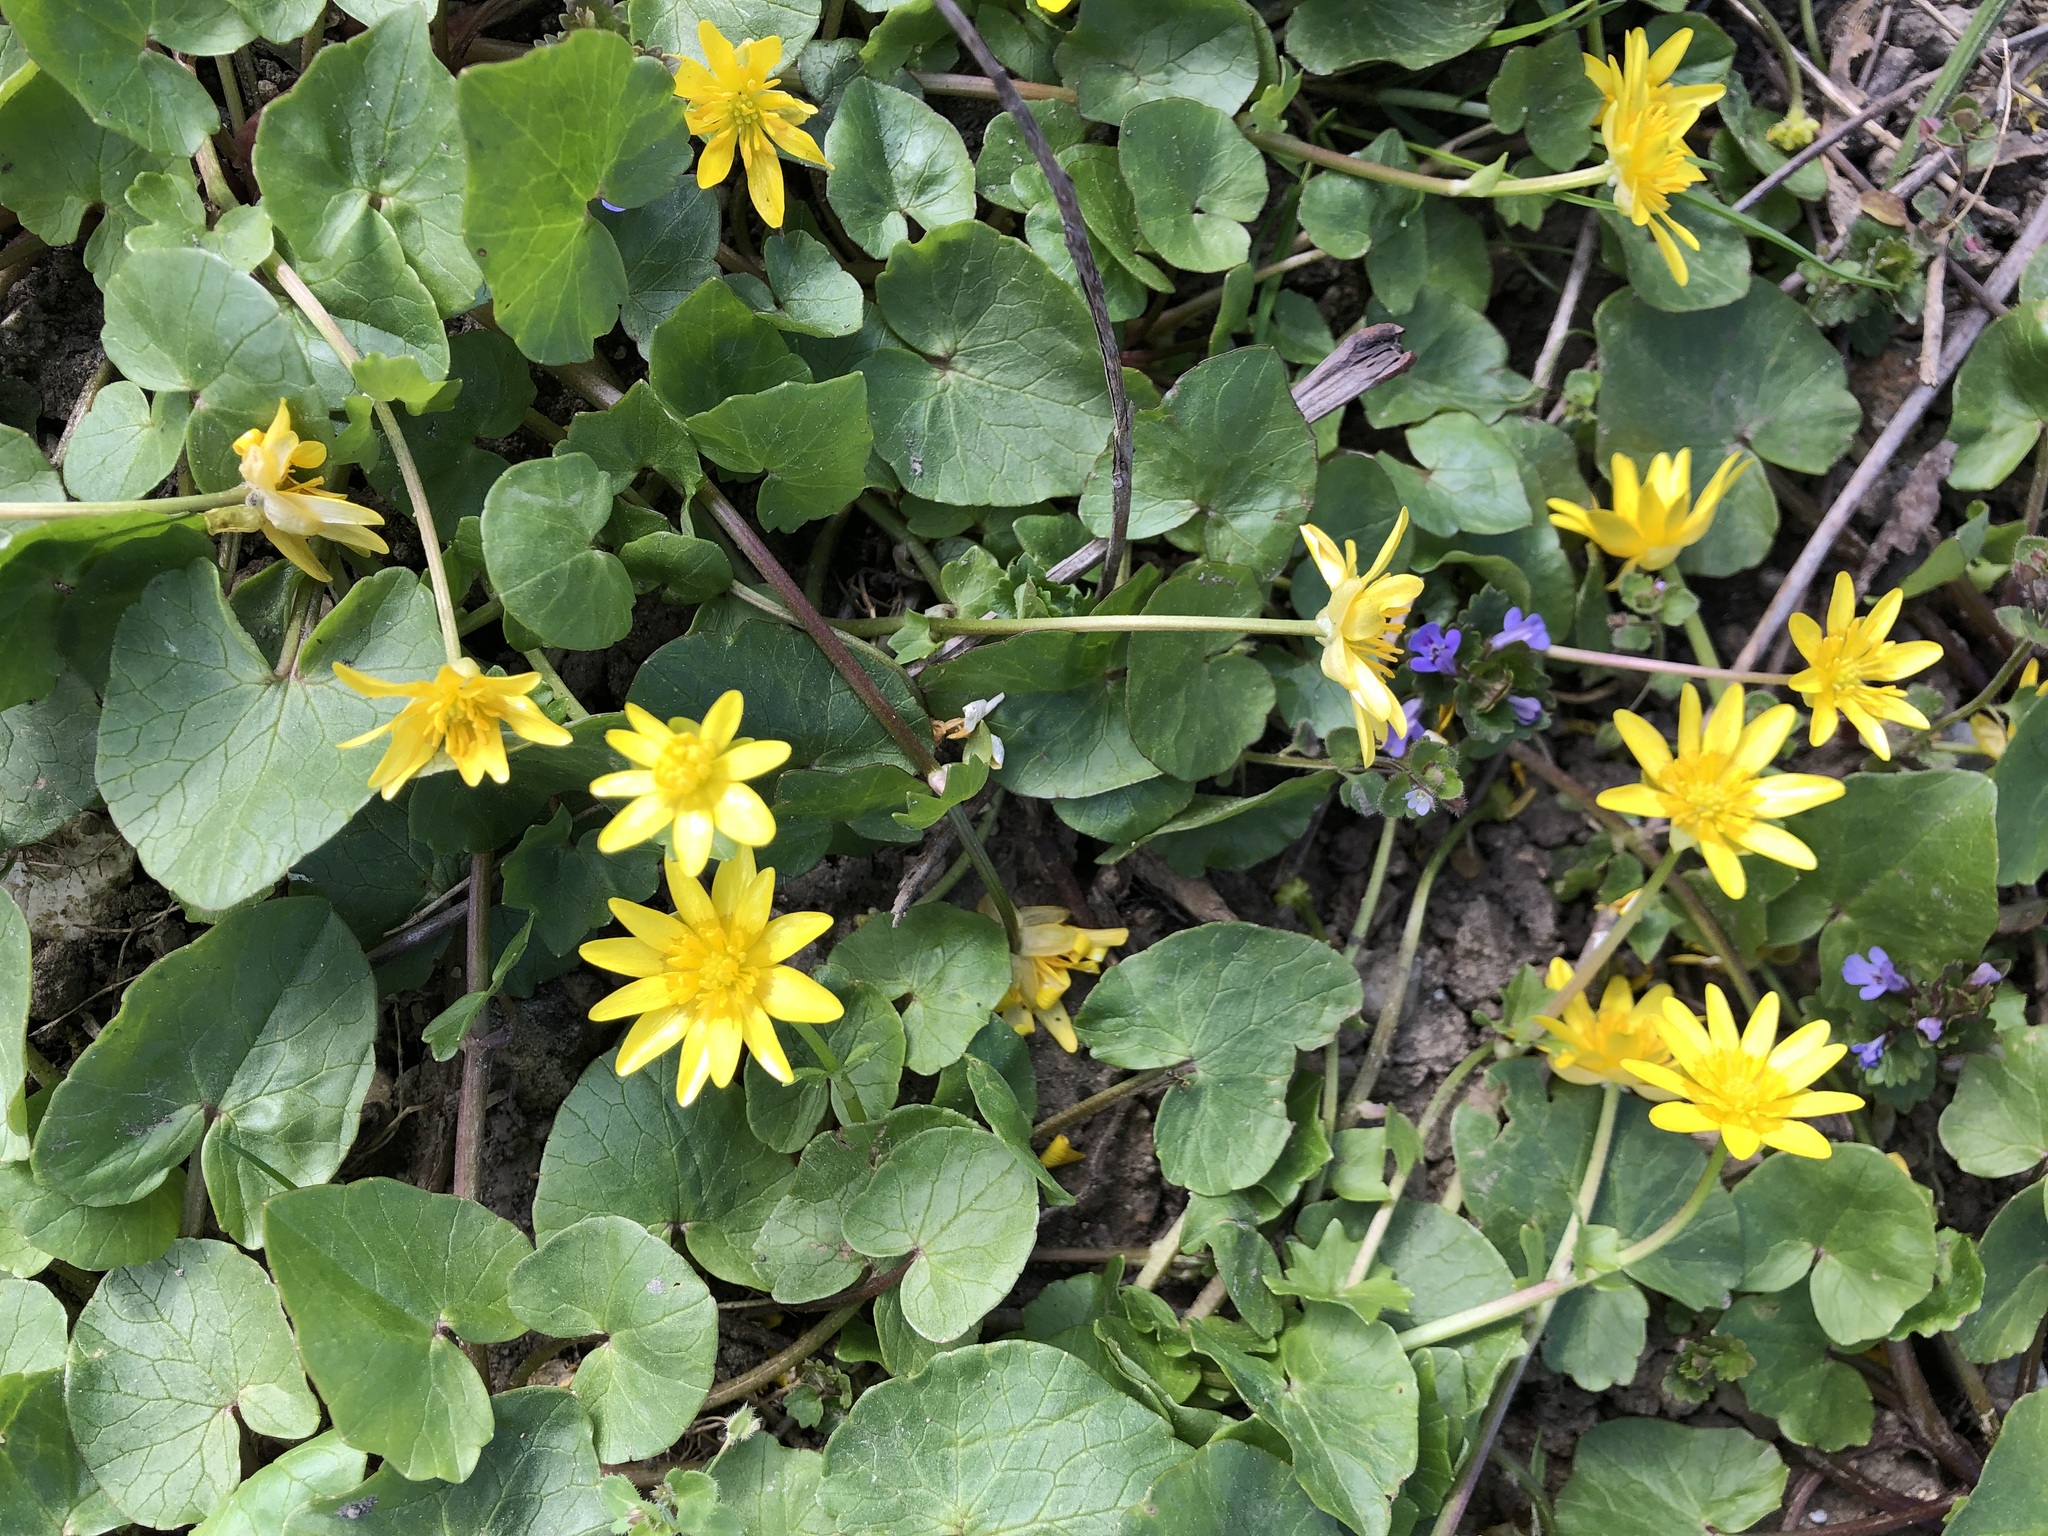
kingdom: Plantae
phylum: Tracheophyta
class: Magnoliopsida
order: Ranunculales
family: Ranunculaceae
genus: Ficaria
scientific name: Ficaria verna
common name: Lesser celandine
